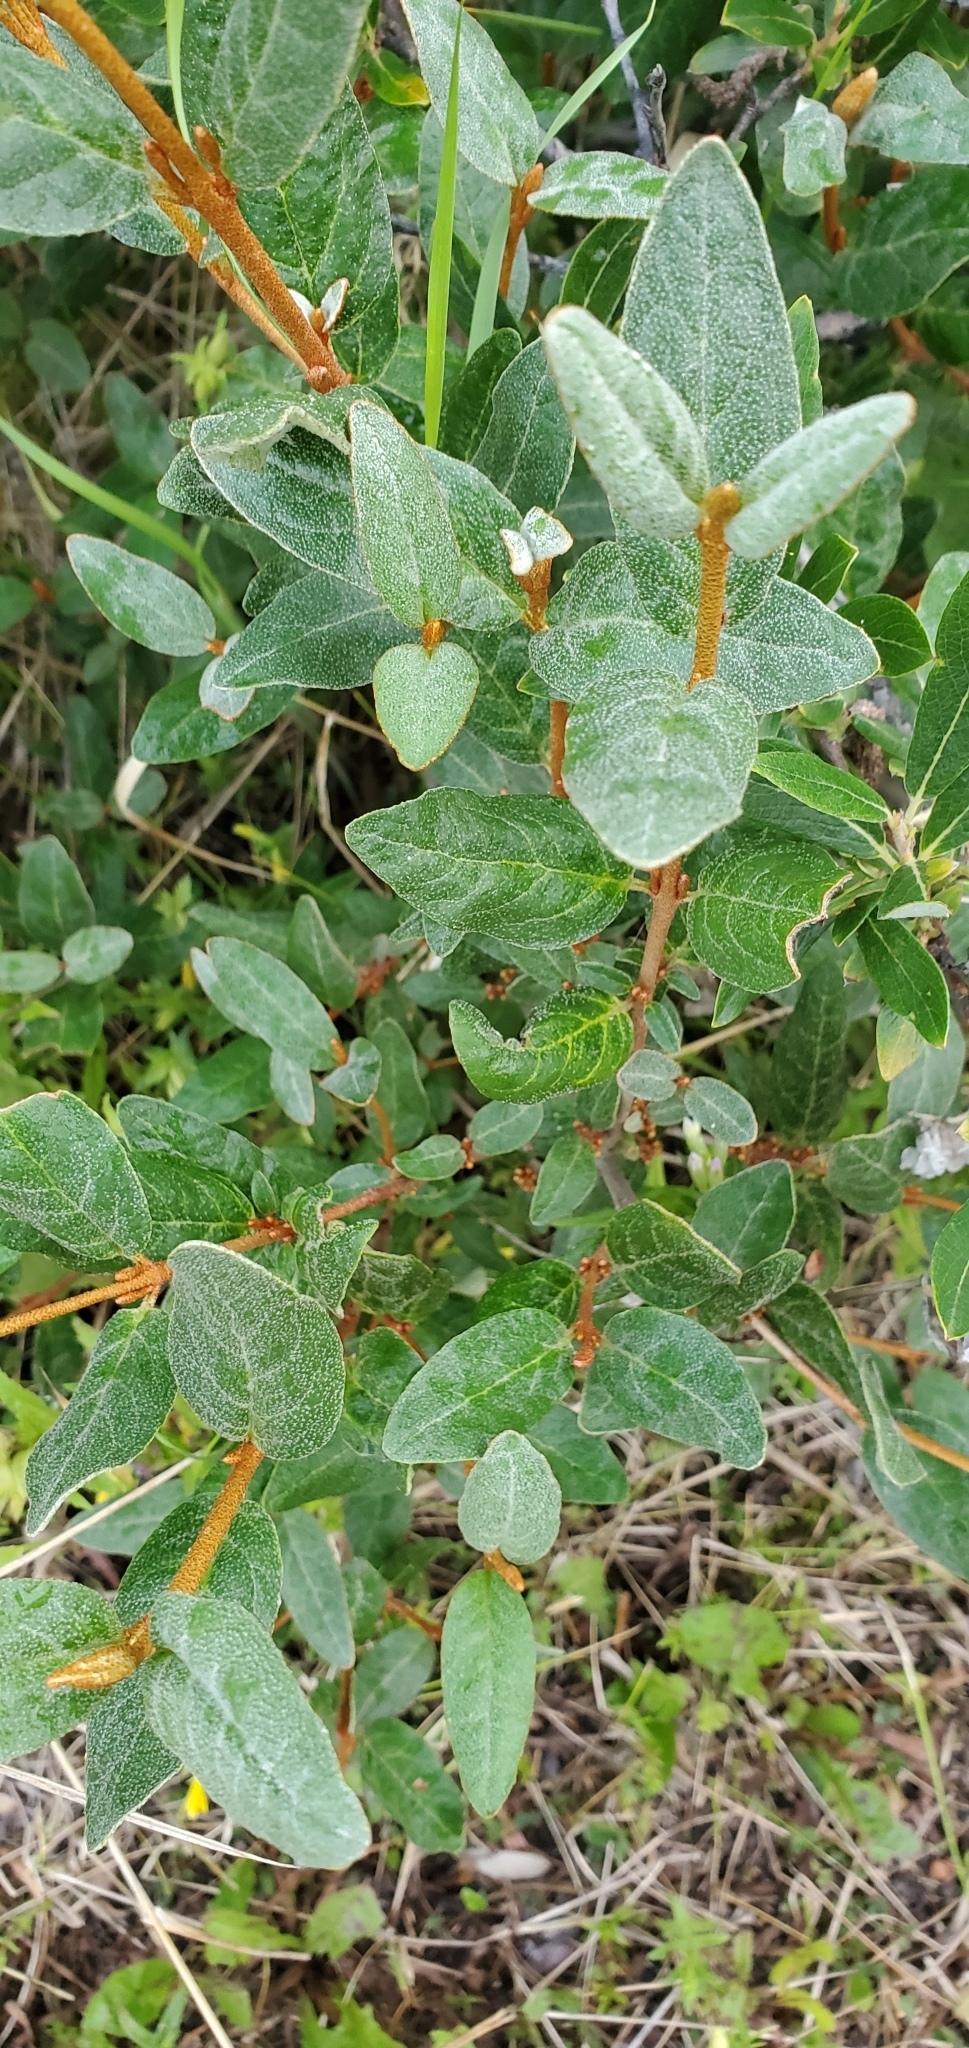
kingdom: Plantae
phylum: Tracheophyta
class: Magnoliopsida
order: Rosales
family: Elaeagnaceae
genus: Shepherdia
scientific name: Shepherdia canadensis
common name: Soapberry
